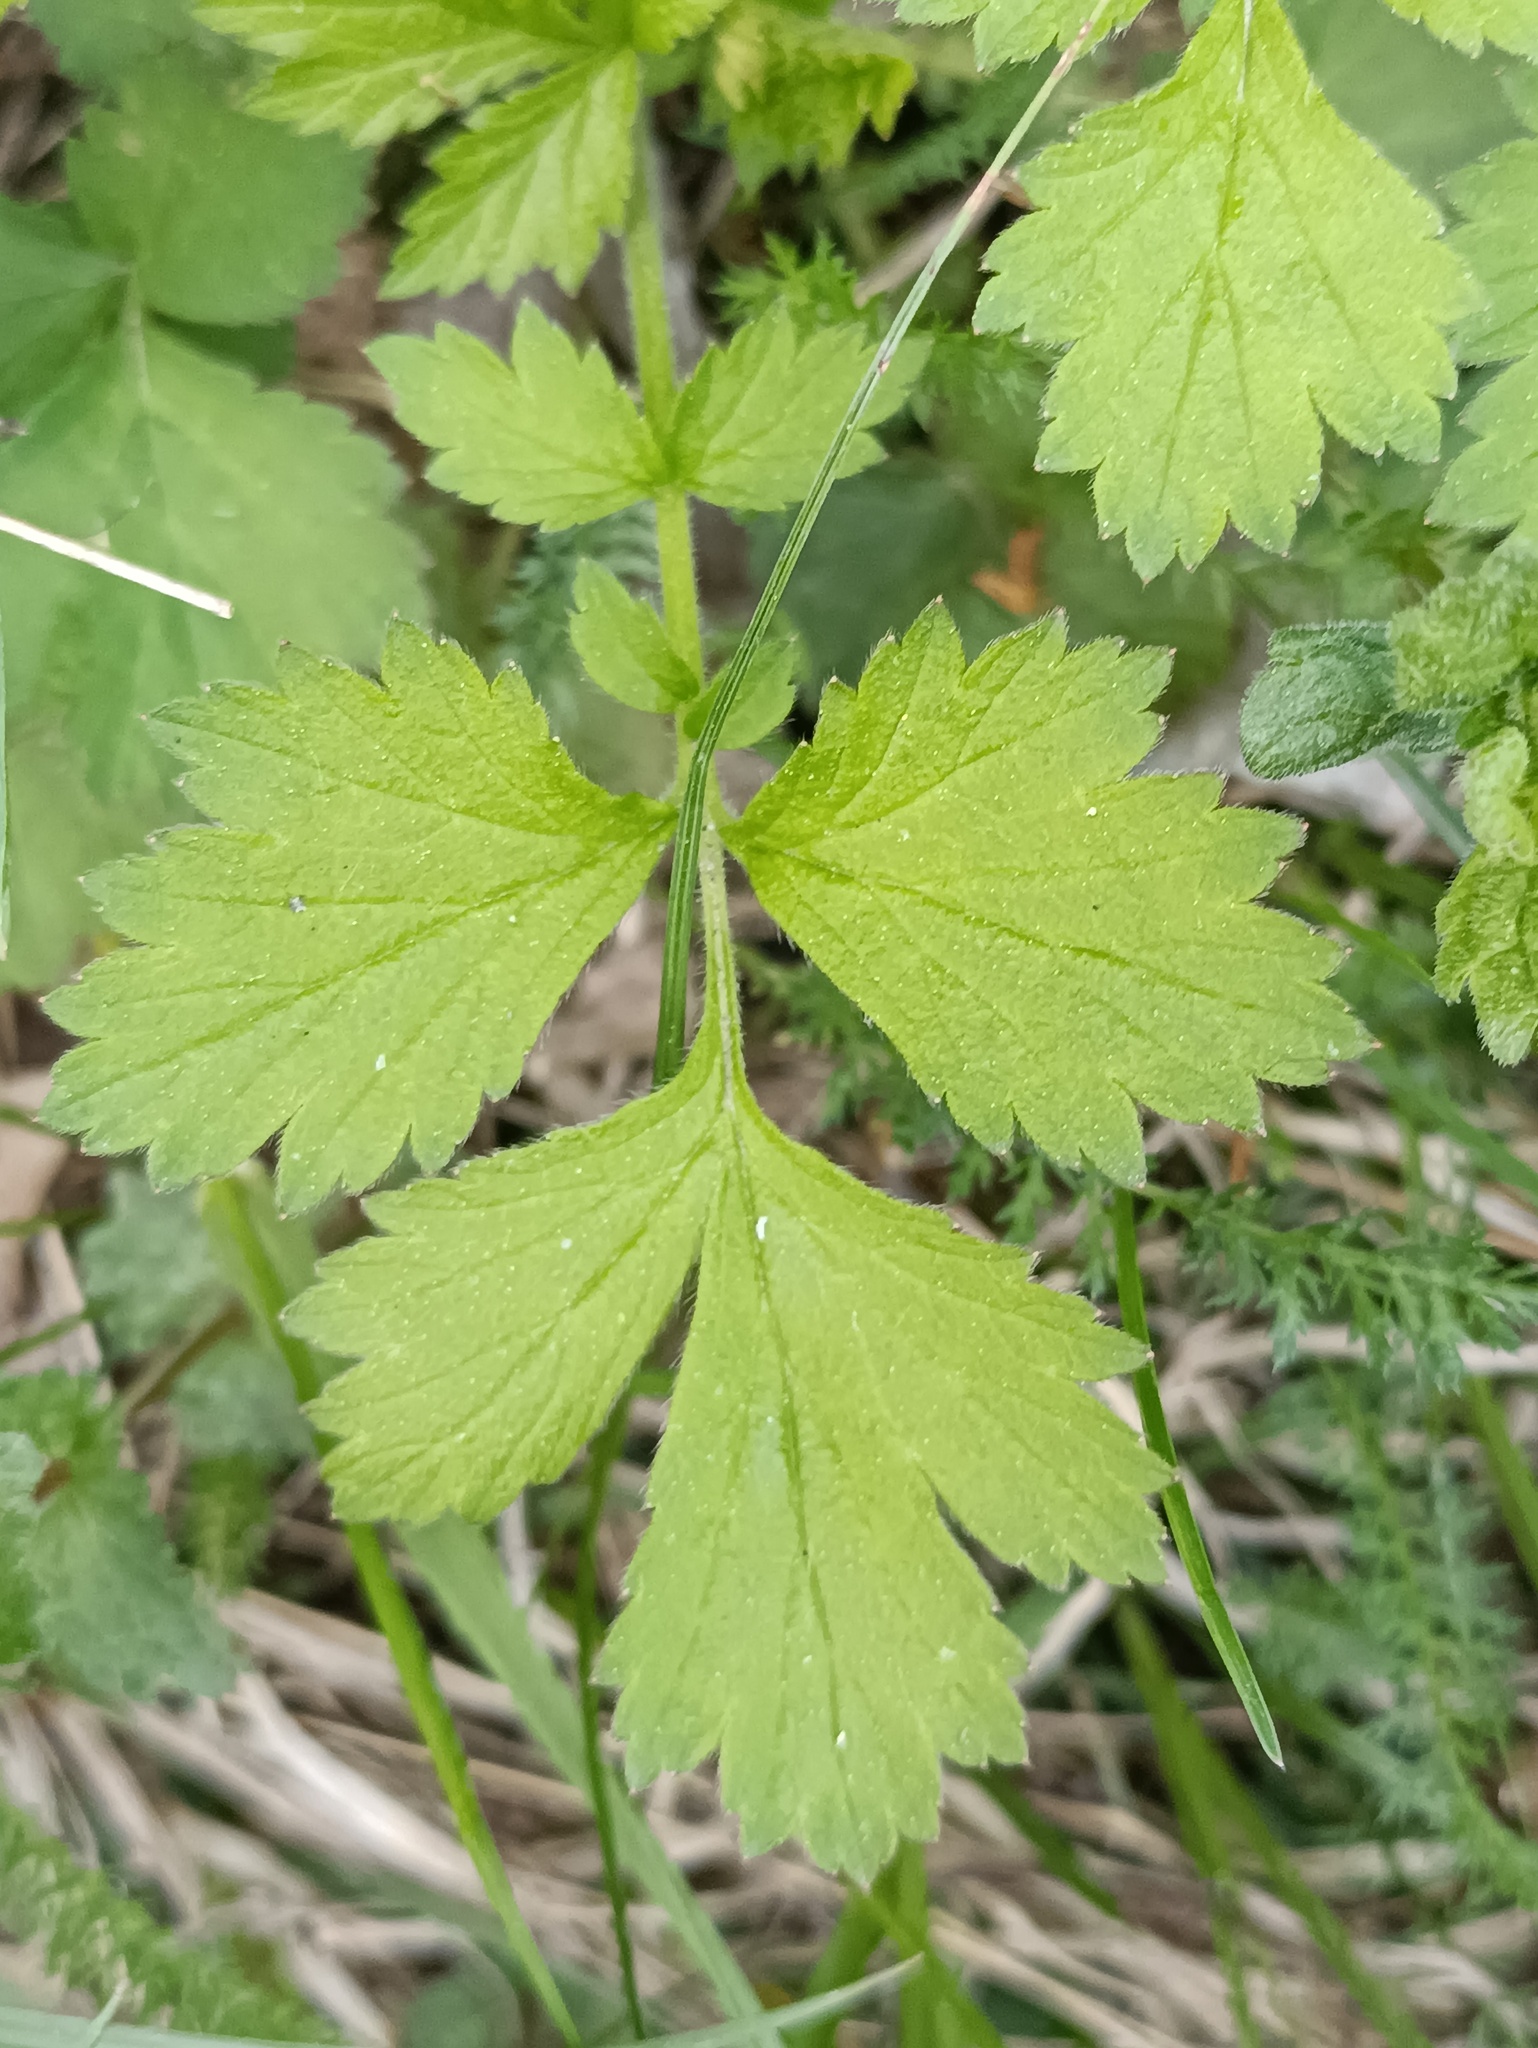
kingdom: Plantae
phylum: Tracheophyta
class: Magnoliopsida
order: Rosales
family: Rosaceae
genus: Geum
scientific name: Geum urbanum
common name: Wood avens
